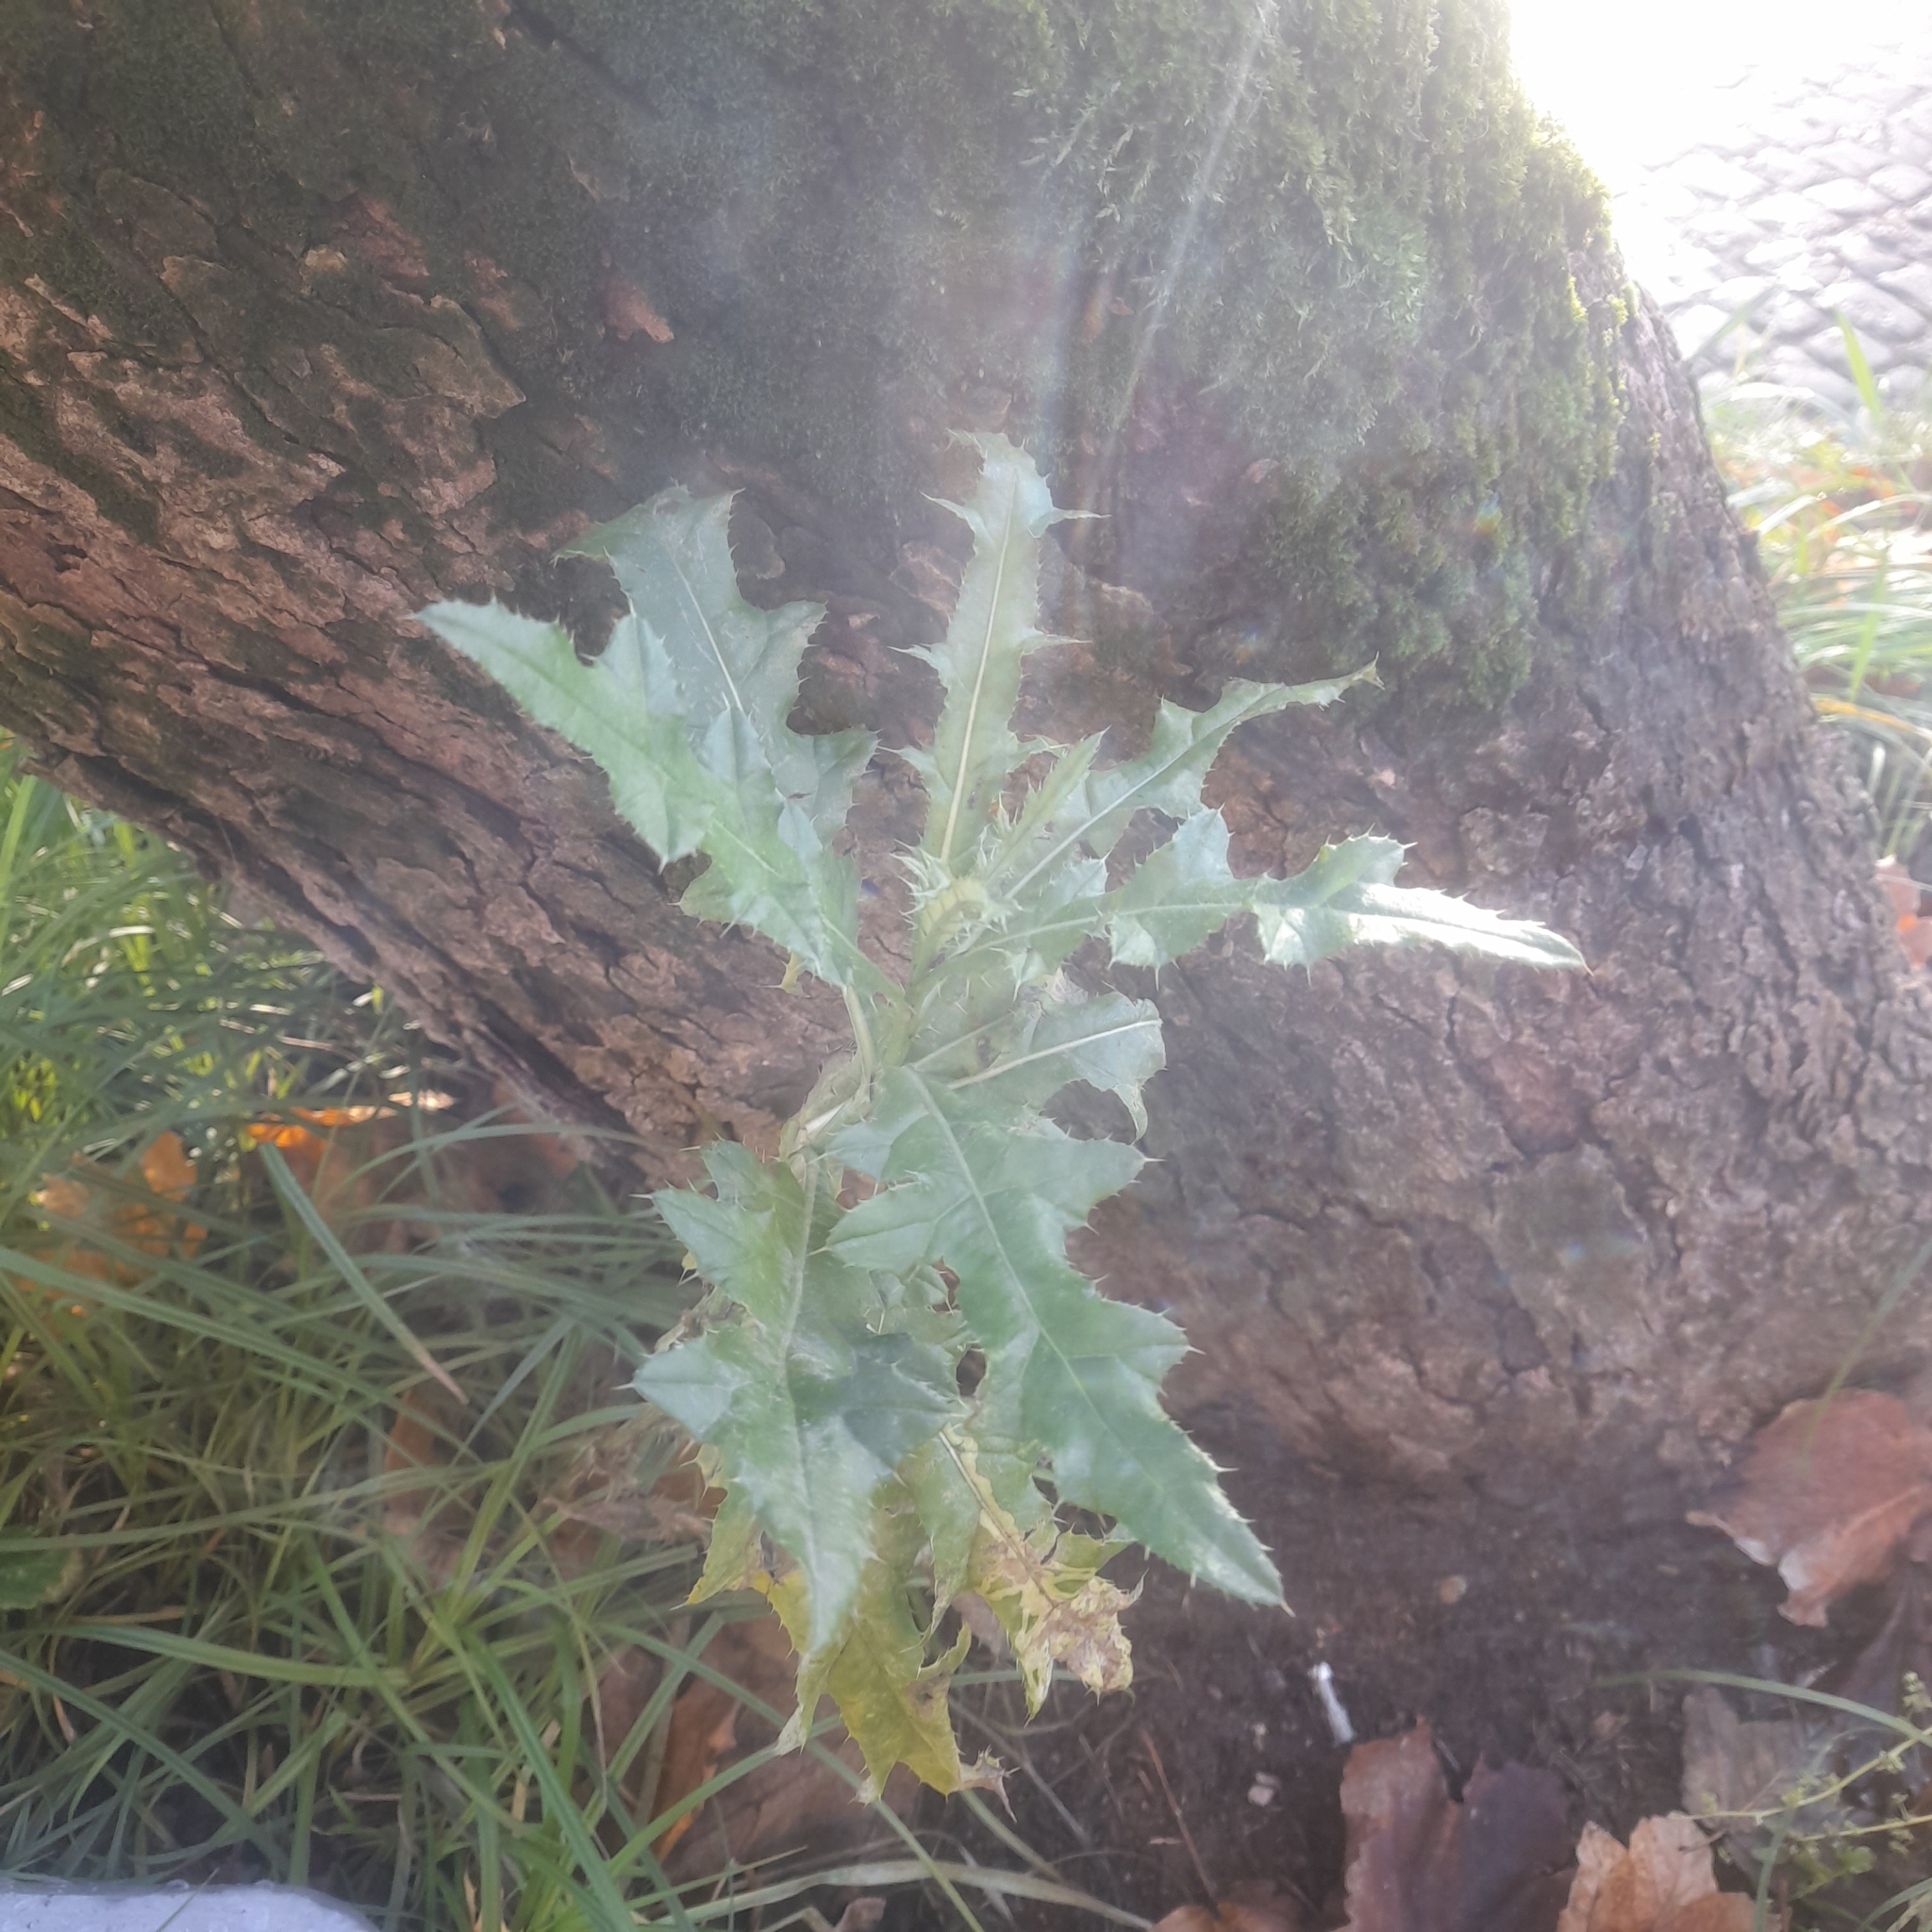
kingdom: Plantae
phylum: Tracheophyta
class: Magnoliopsida
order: Asterales
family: Asteraceae
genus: Cirsium
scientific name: Cirsium arvense
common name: Creeping thistle
